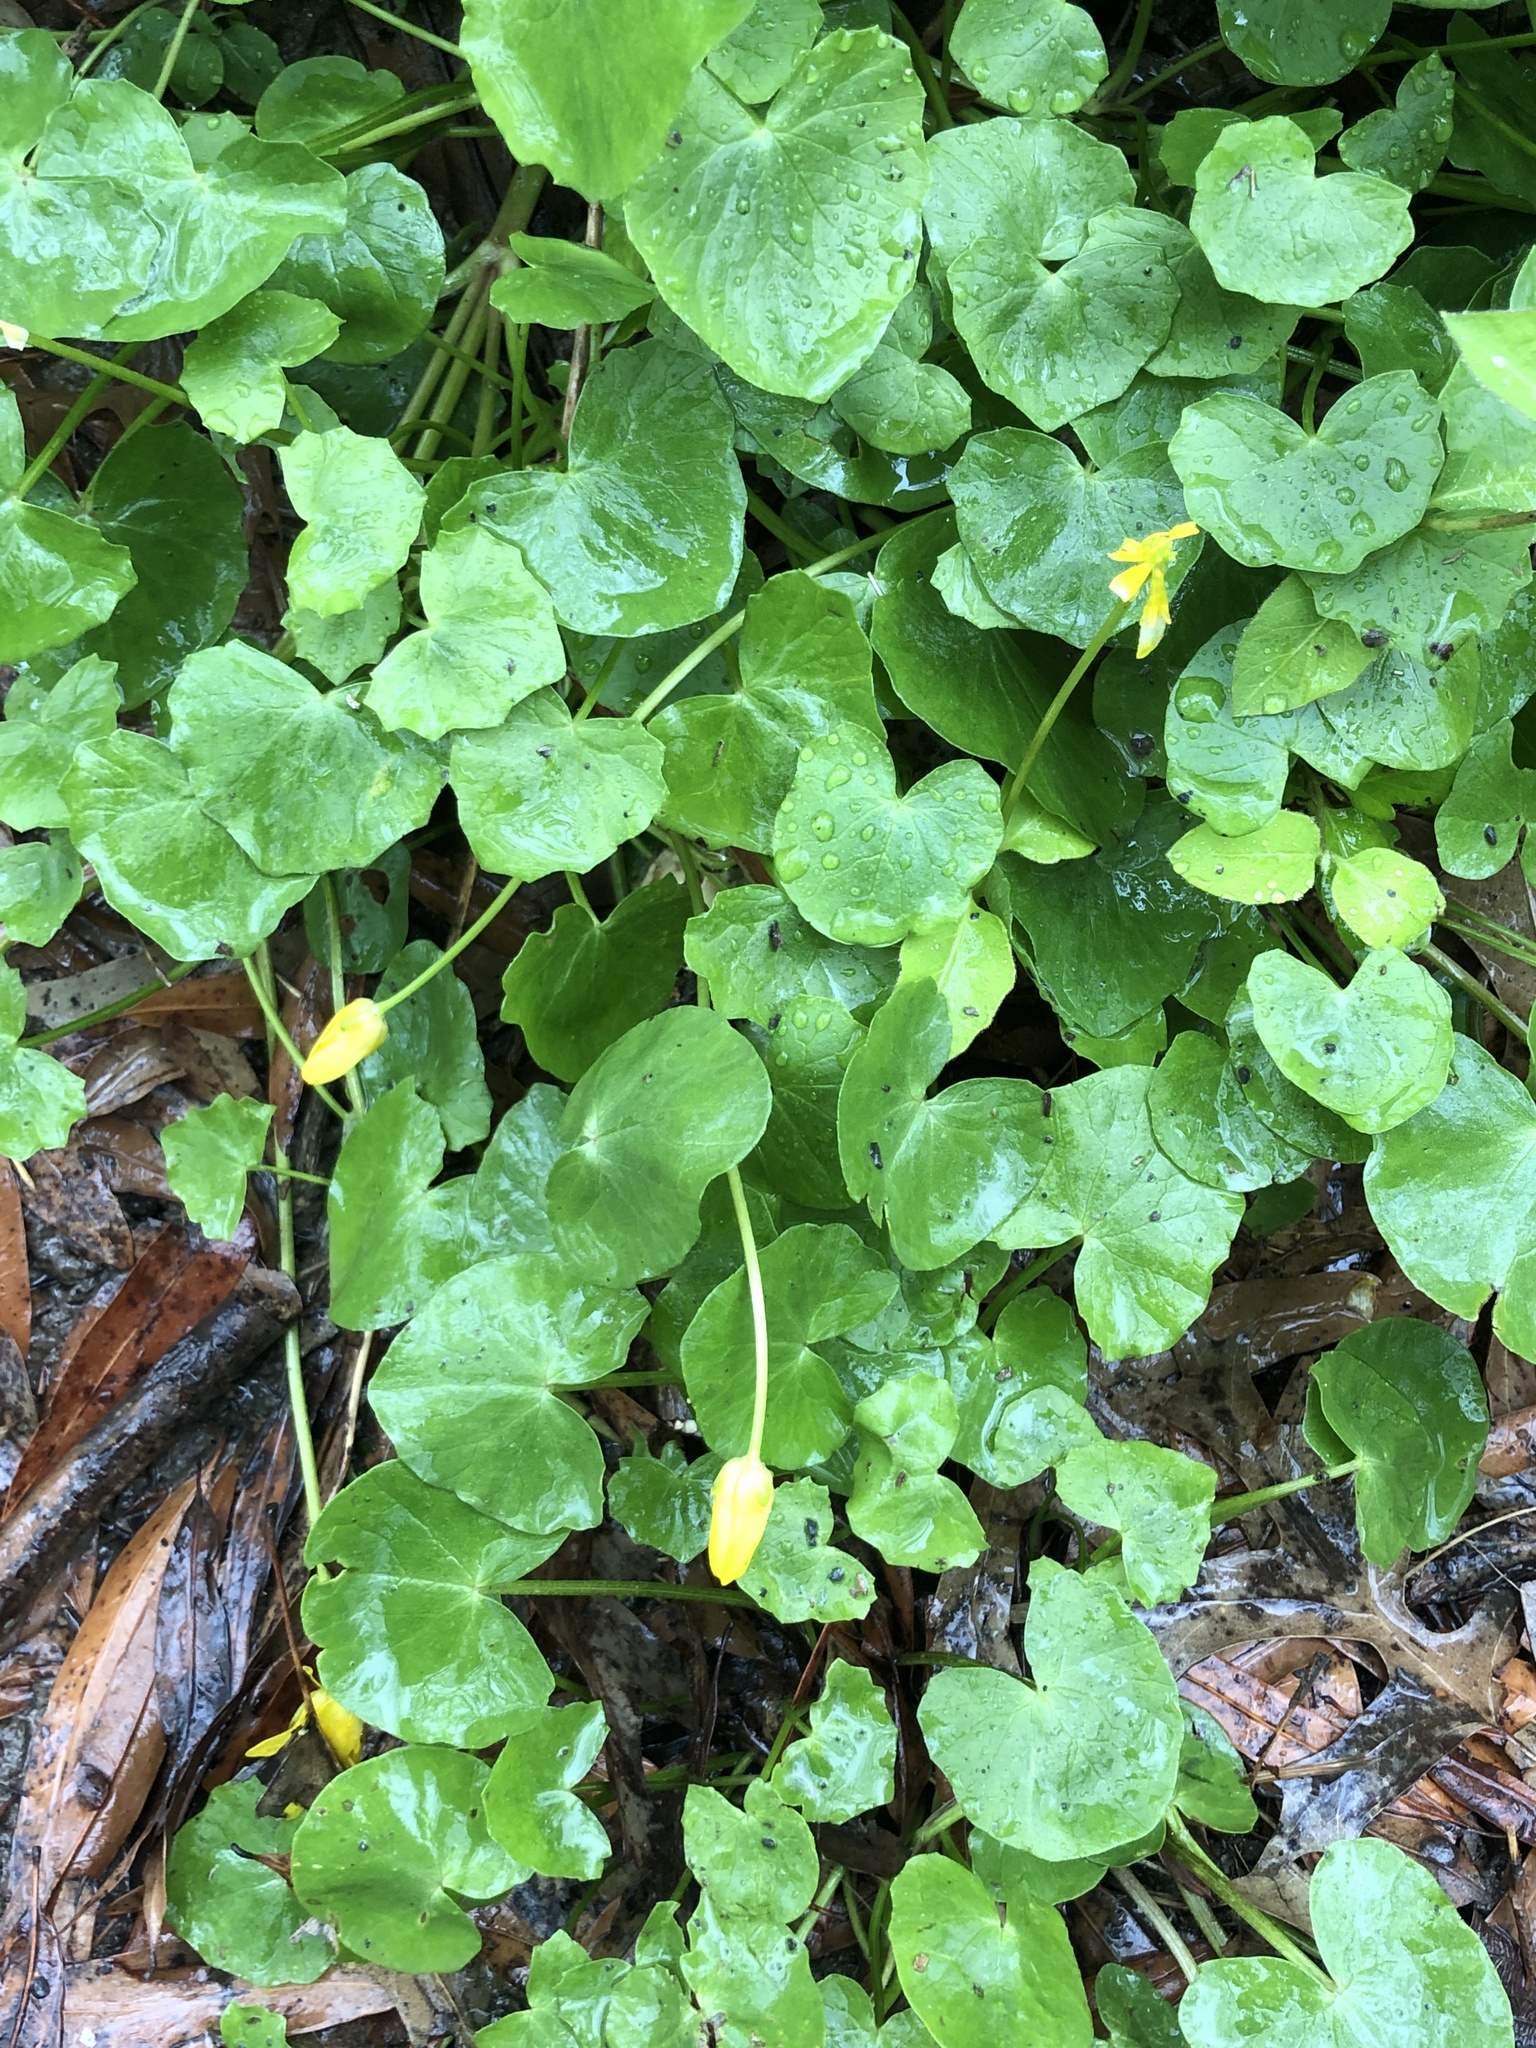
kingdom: Plantae
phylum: Tracheophyta
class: Magnoliopsida
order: Ranunculales
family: Ranunculaceae
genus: Ficaria
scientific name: Ficaria verna
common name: Lesser celandine
